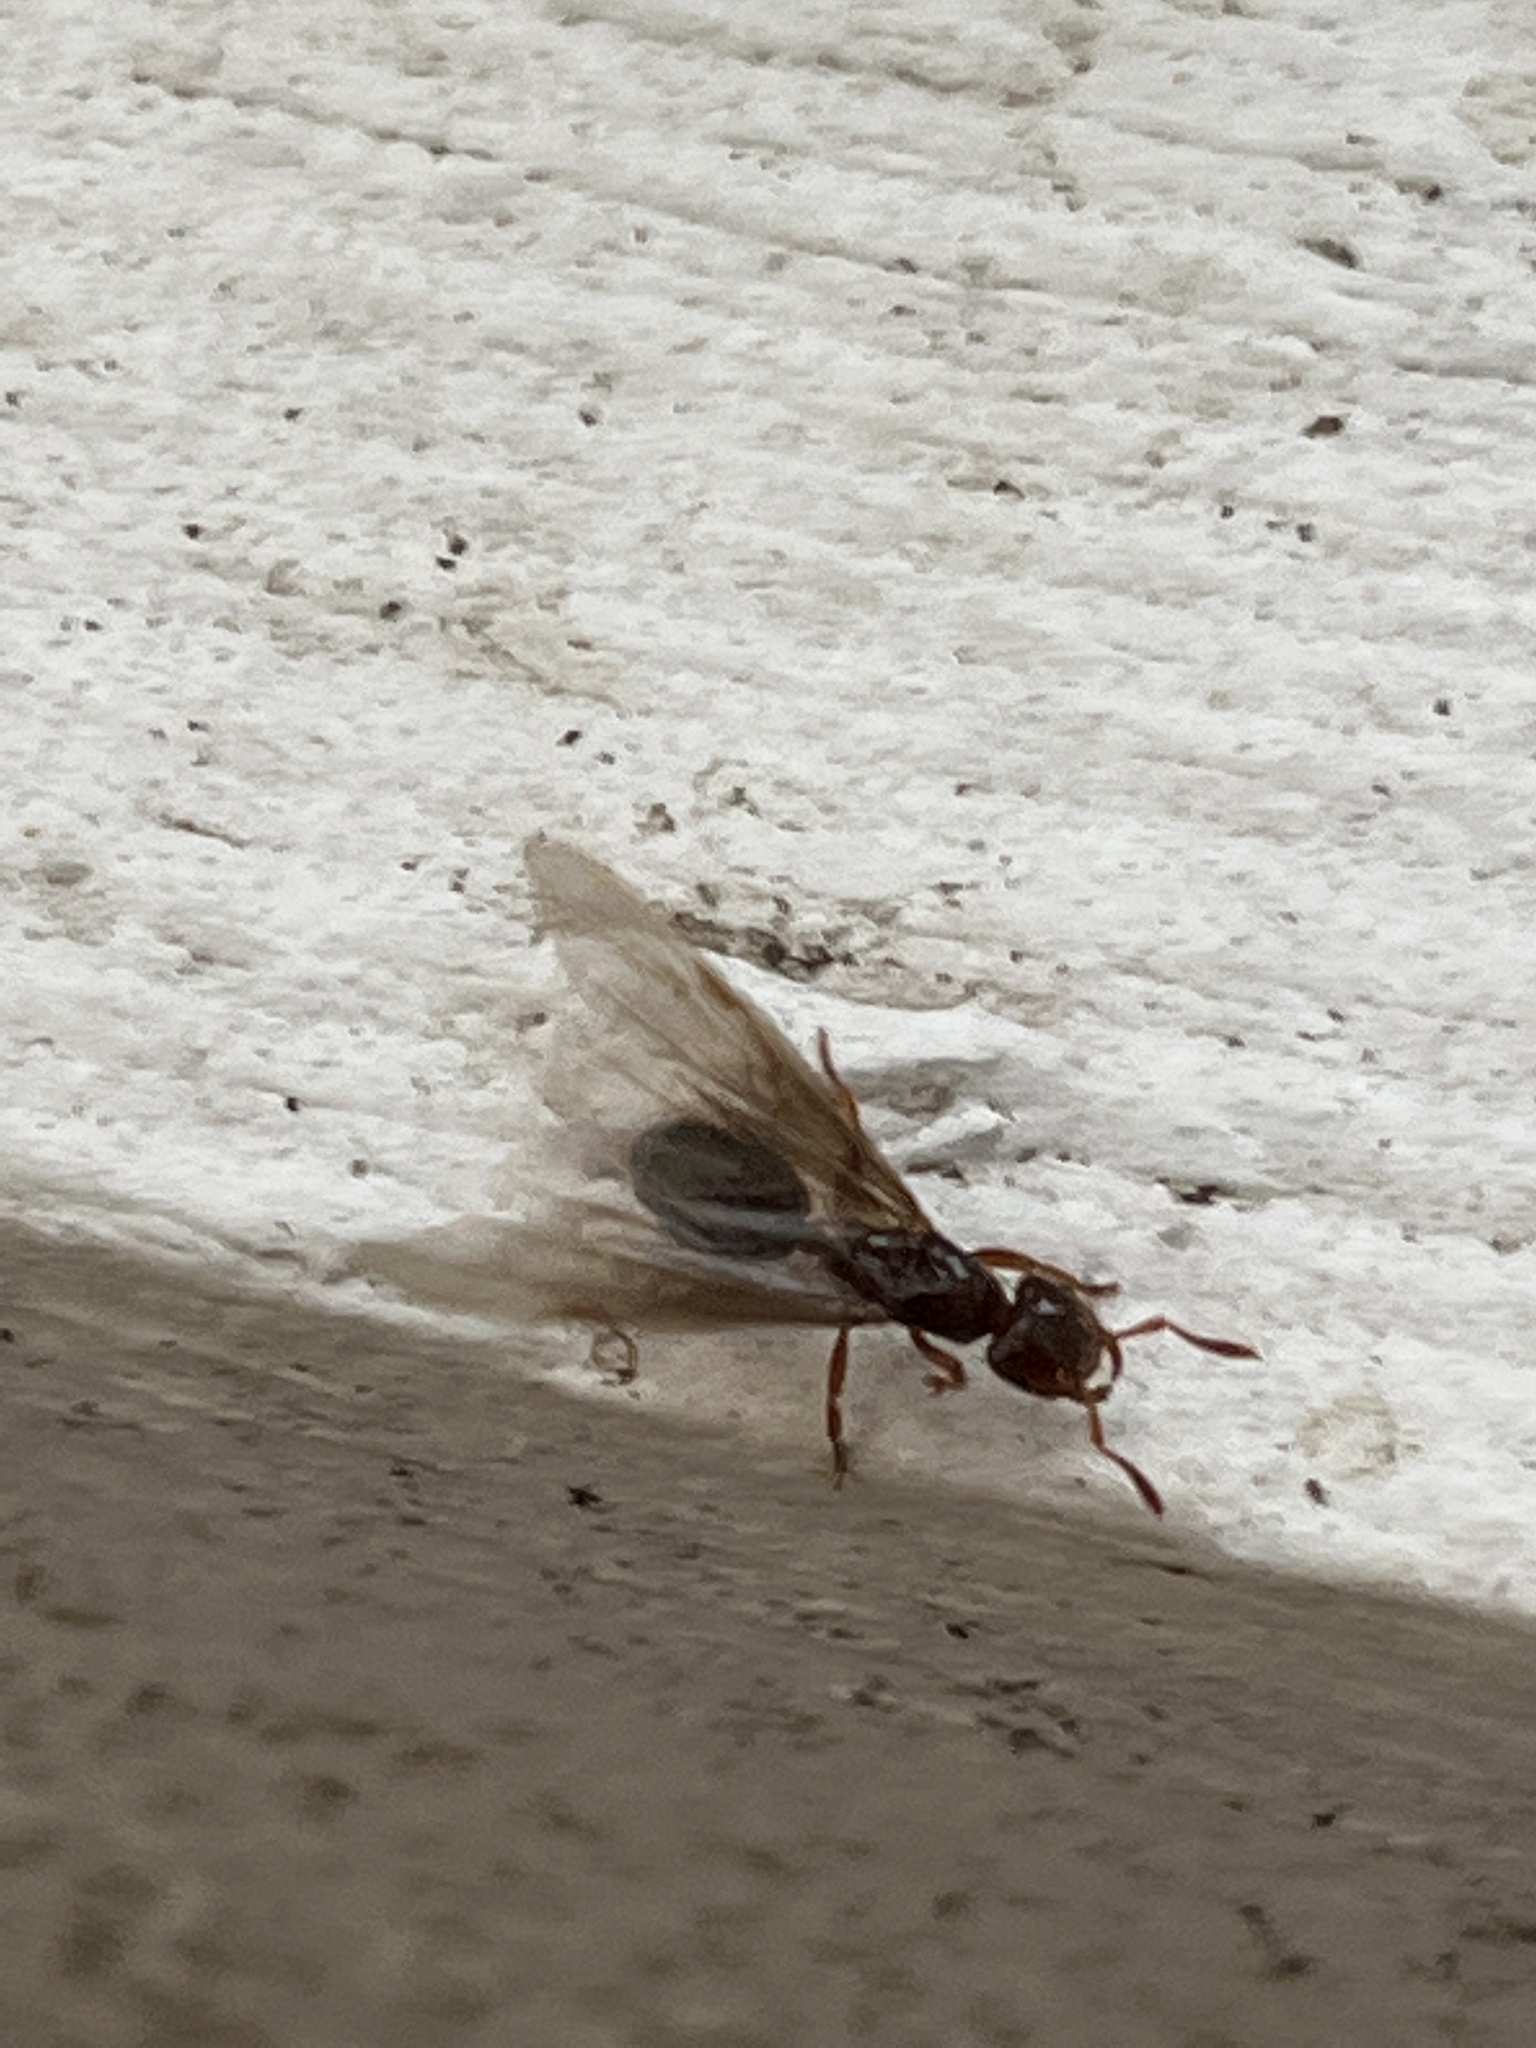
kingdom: Animalia
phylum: Arthropoda
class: Insecta
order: Hymenoptera
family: Formicidae
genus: Lasius
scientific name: Lasius claviger
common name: Common citronella ant
